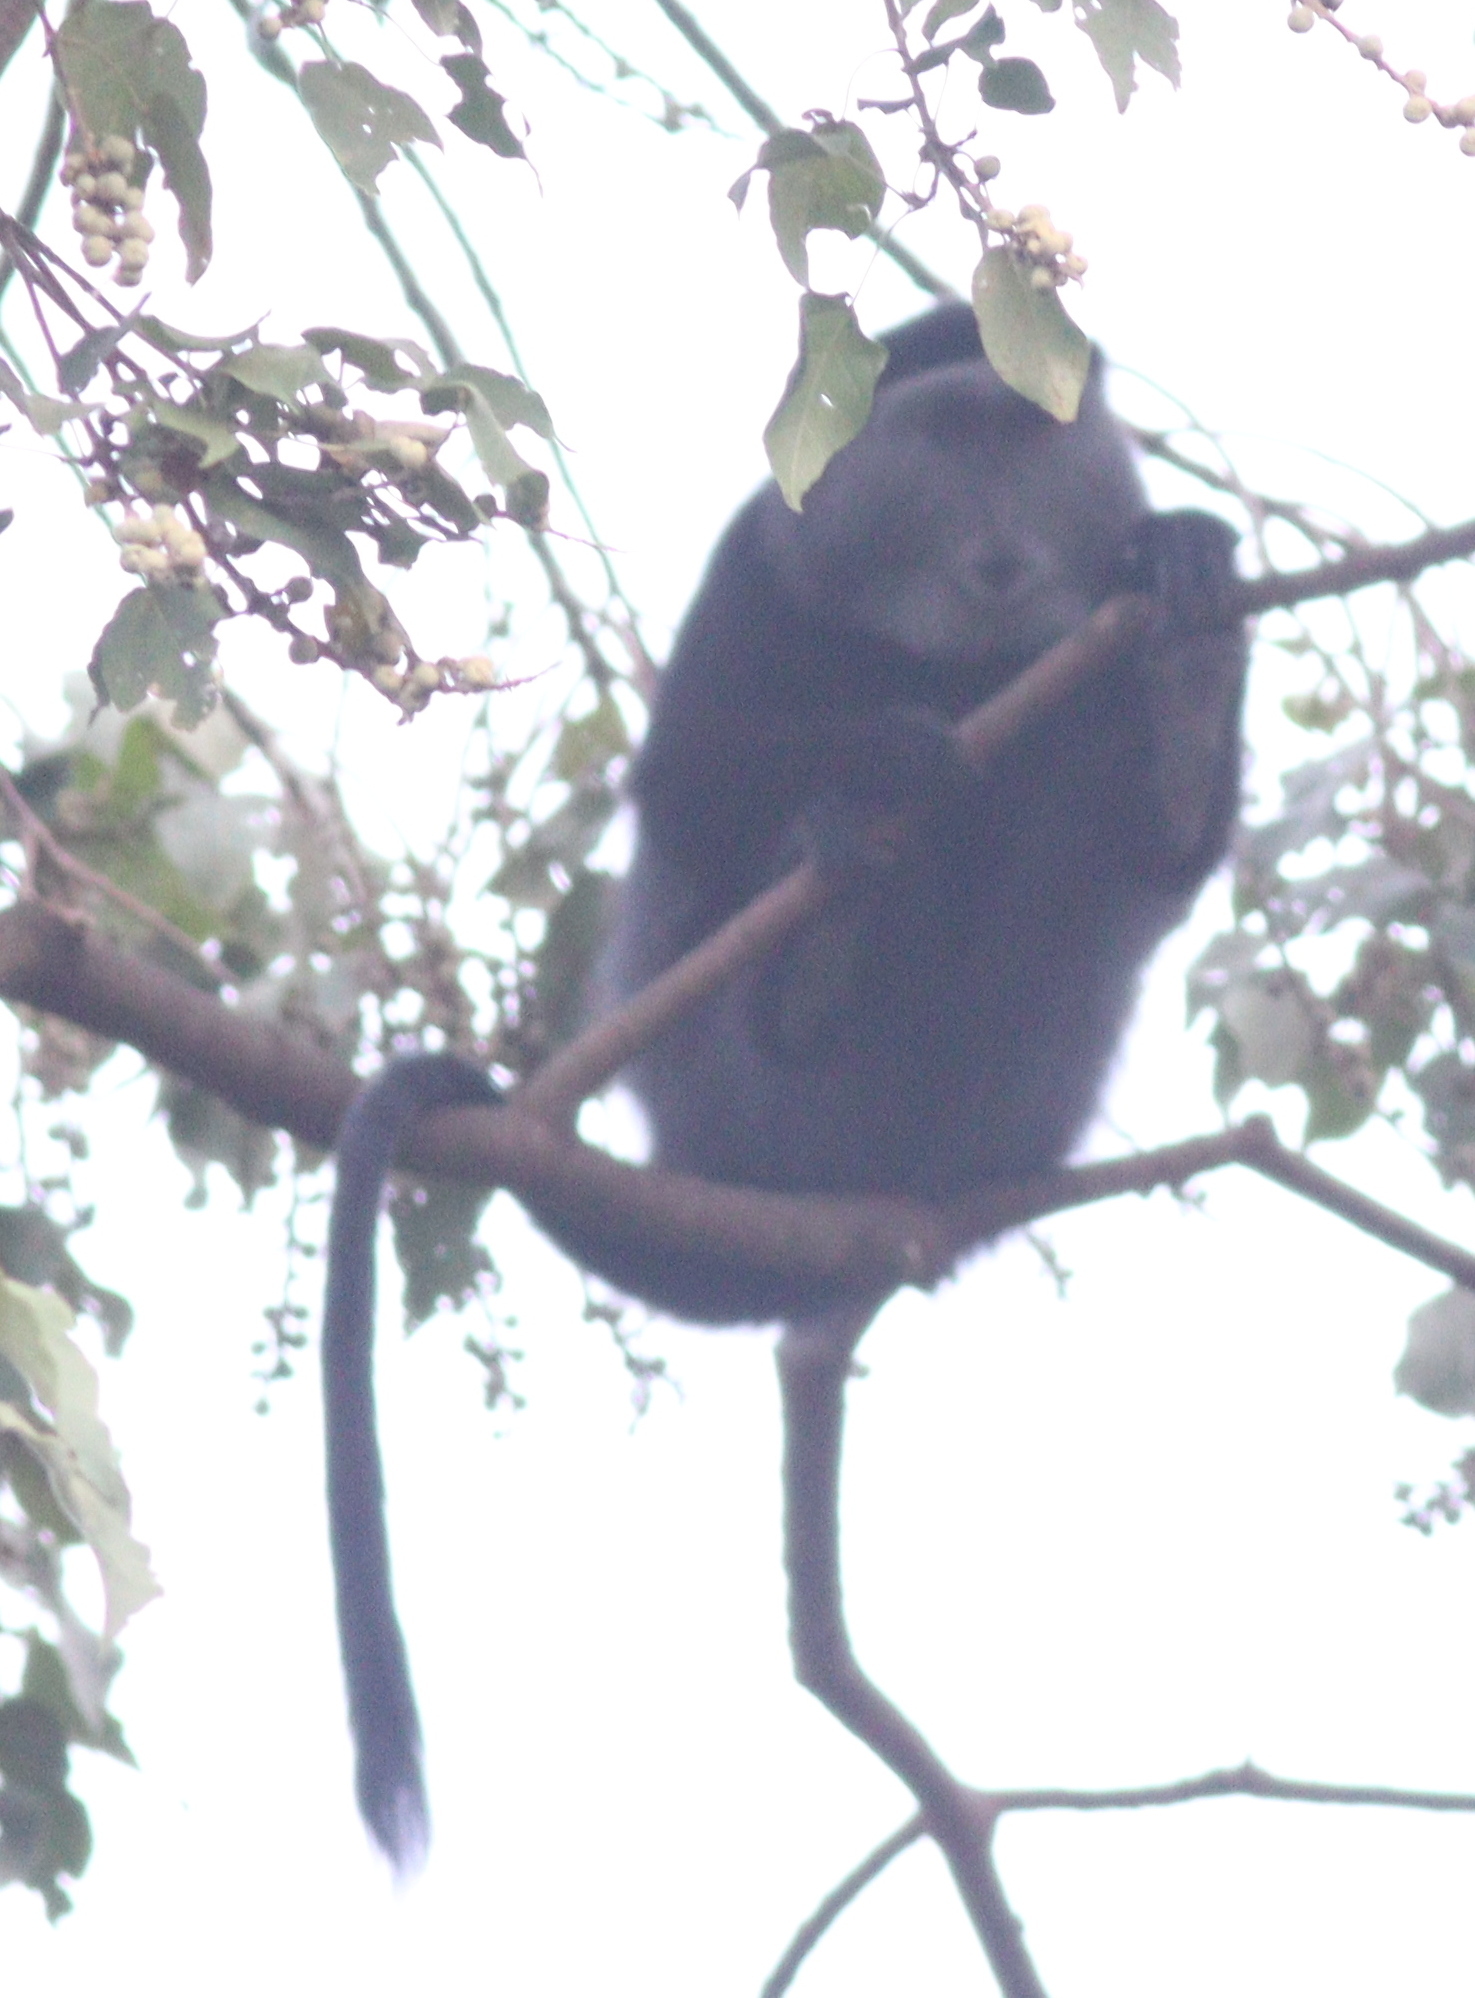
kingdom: Animalia
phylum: Chordata
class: Mammalia
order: Primates
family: Cercopithecidae
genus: Cercopithecus
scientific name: Cercopithecus mitis
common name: Blue monkey
